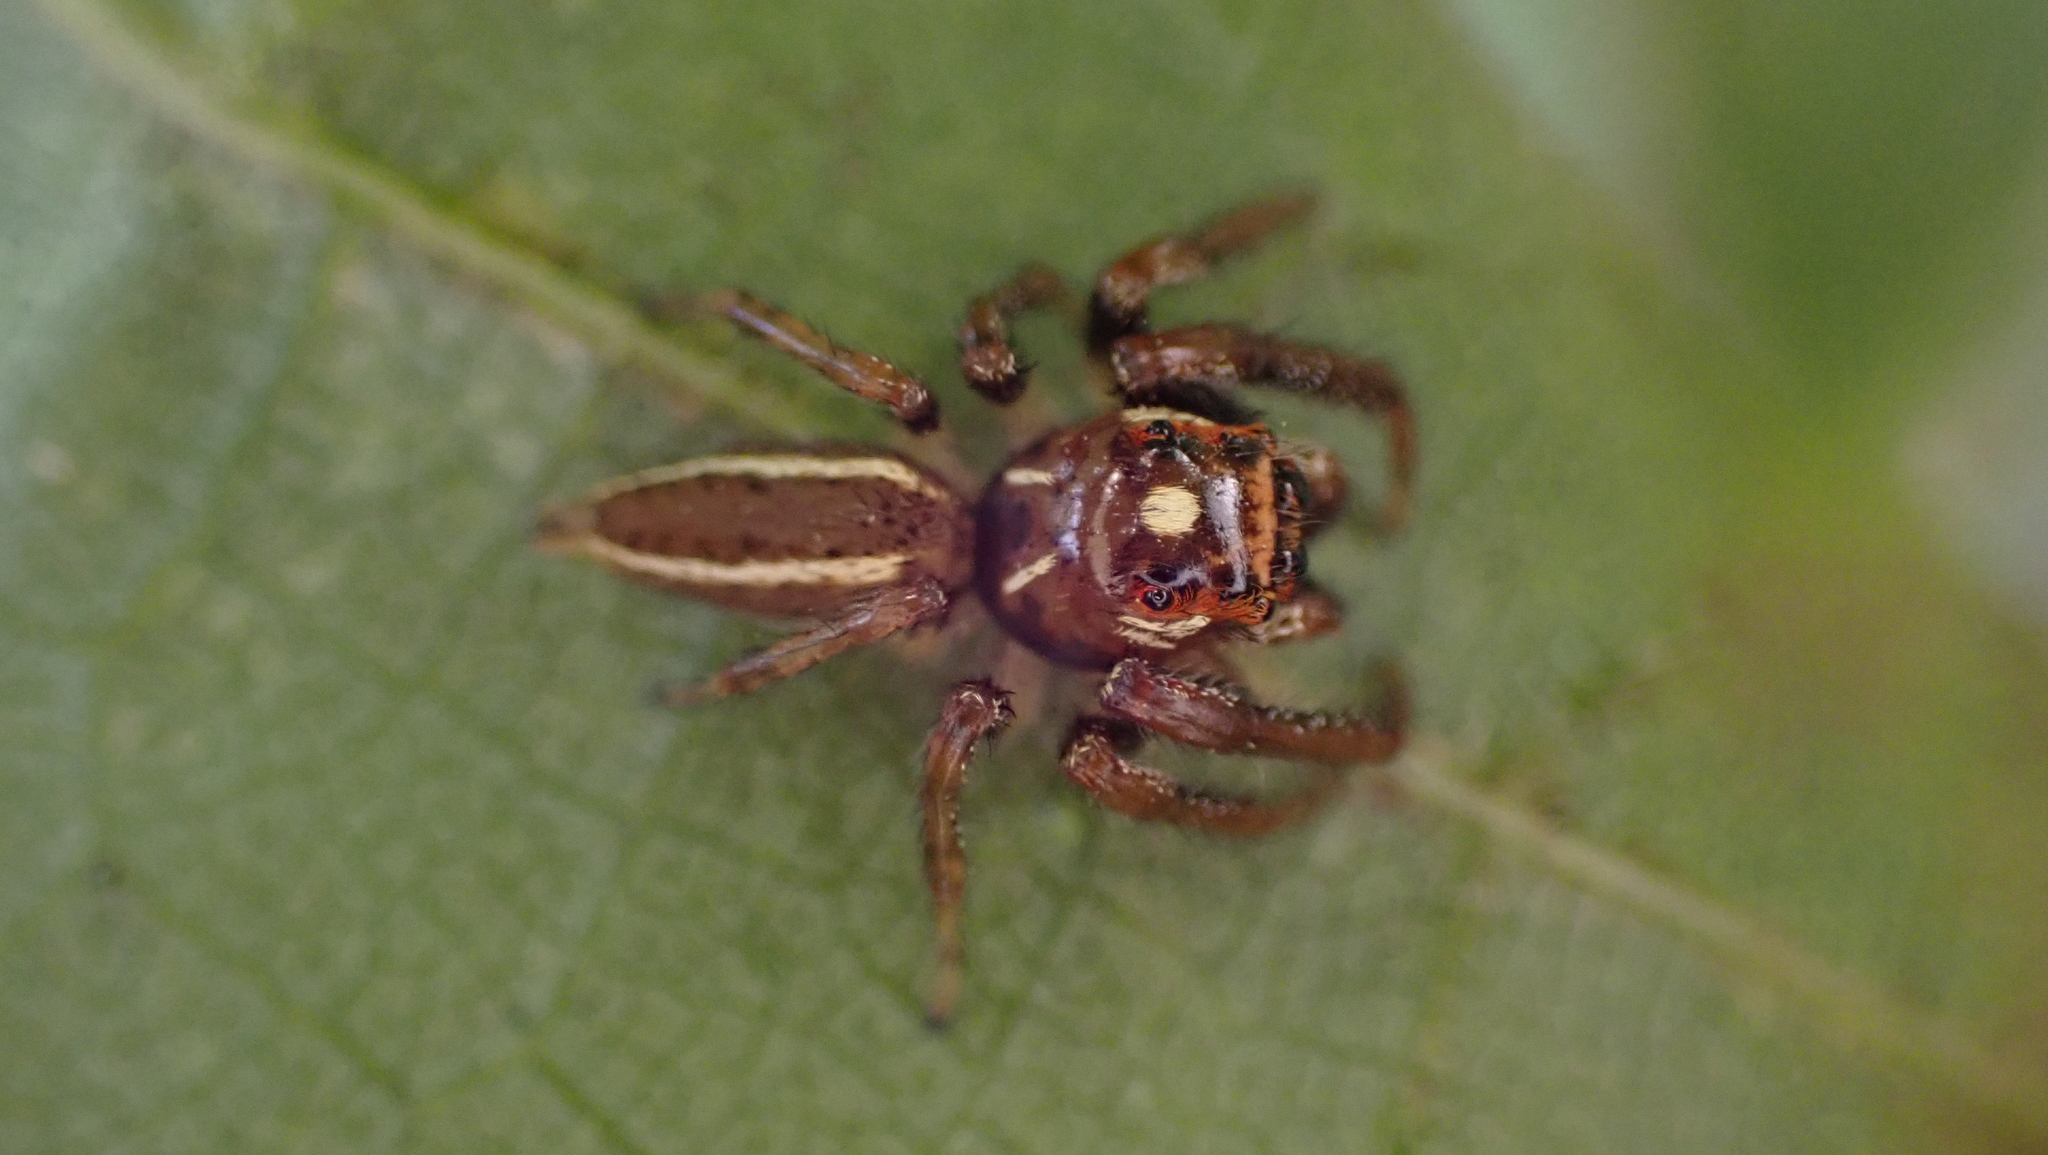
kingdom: Animalia
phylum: Arthropoda
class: Arachnida
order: Araneae
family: Salticidae
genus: Colonus
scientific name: Colonus sylvanus
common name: Jumping spiders
